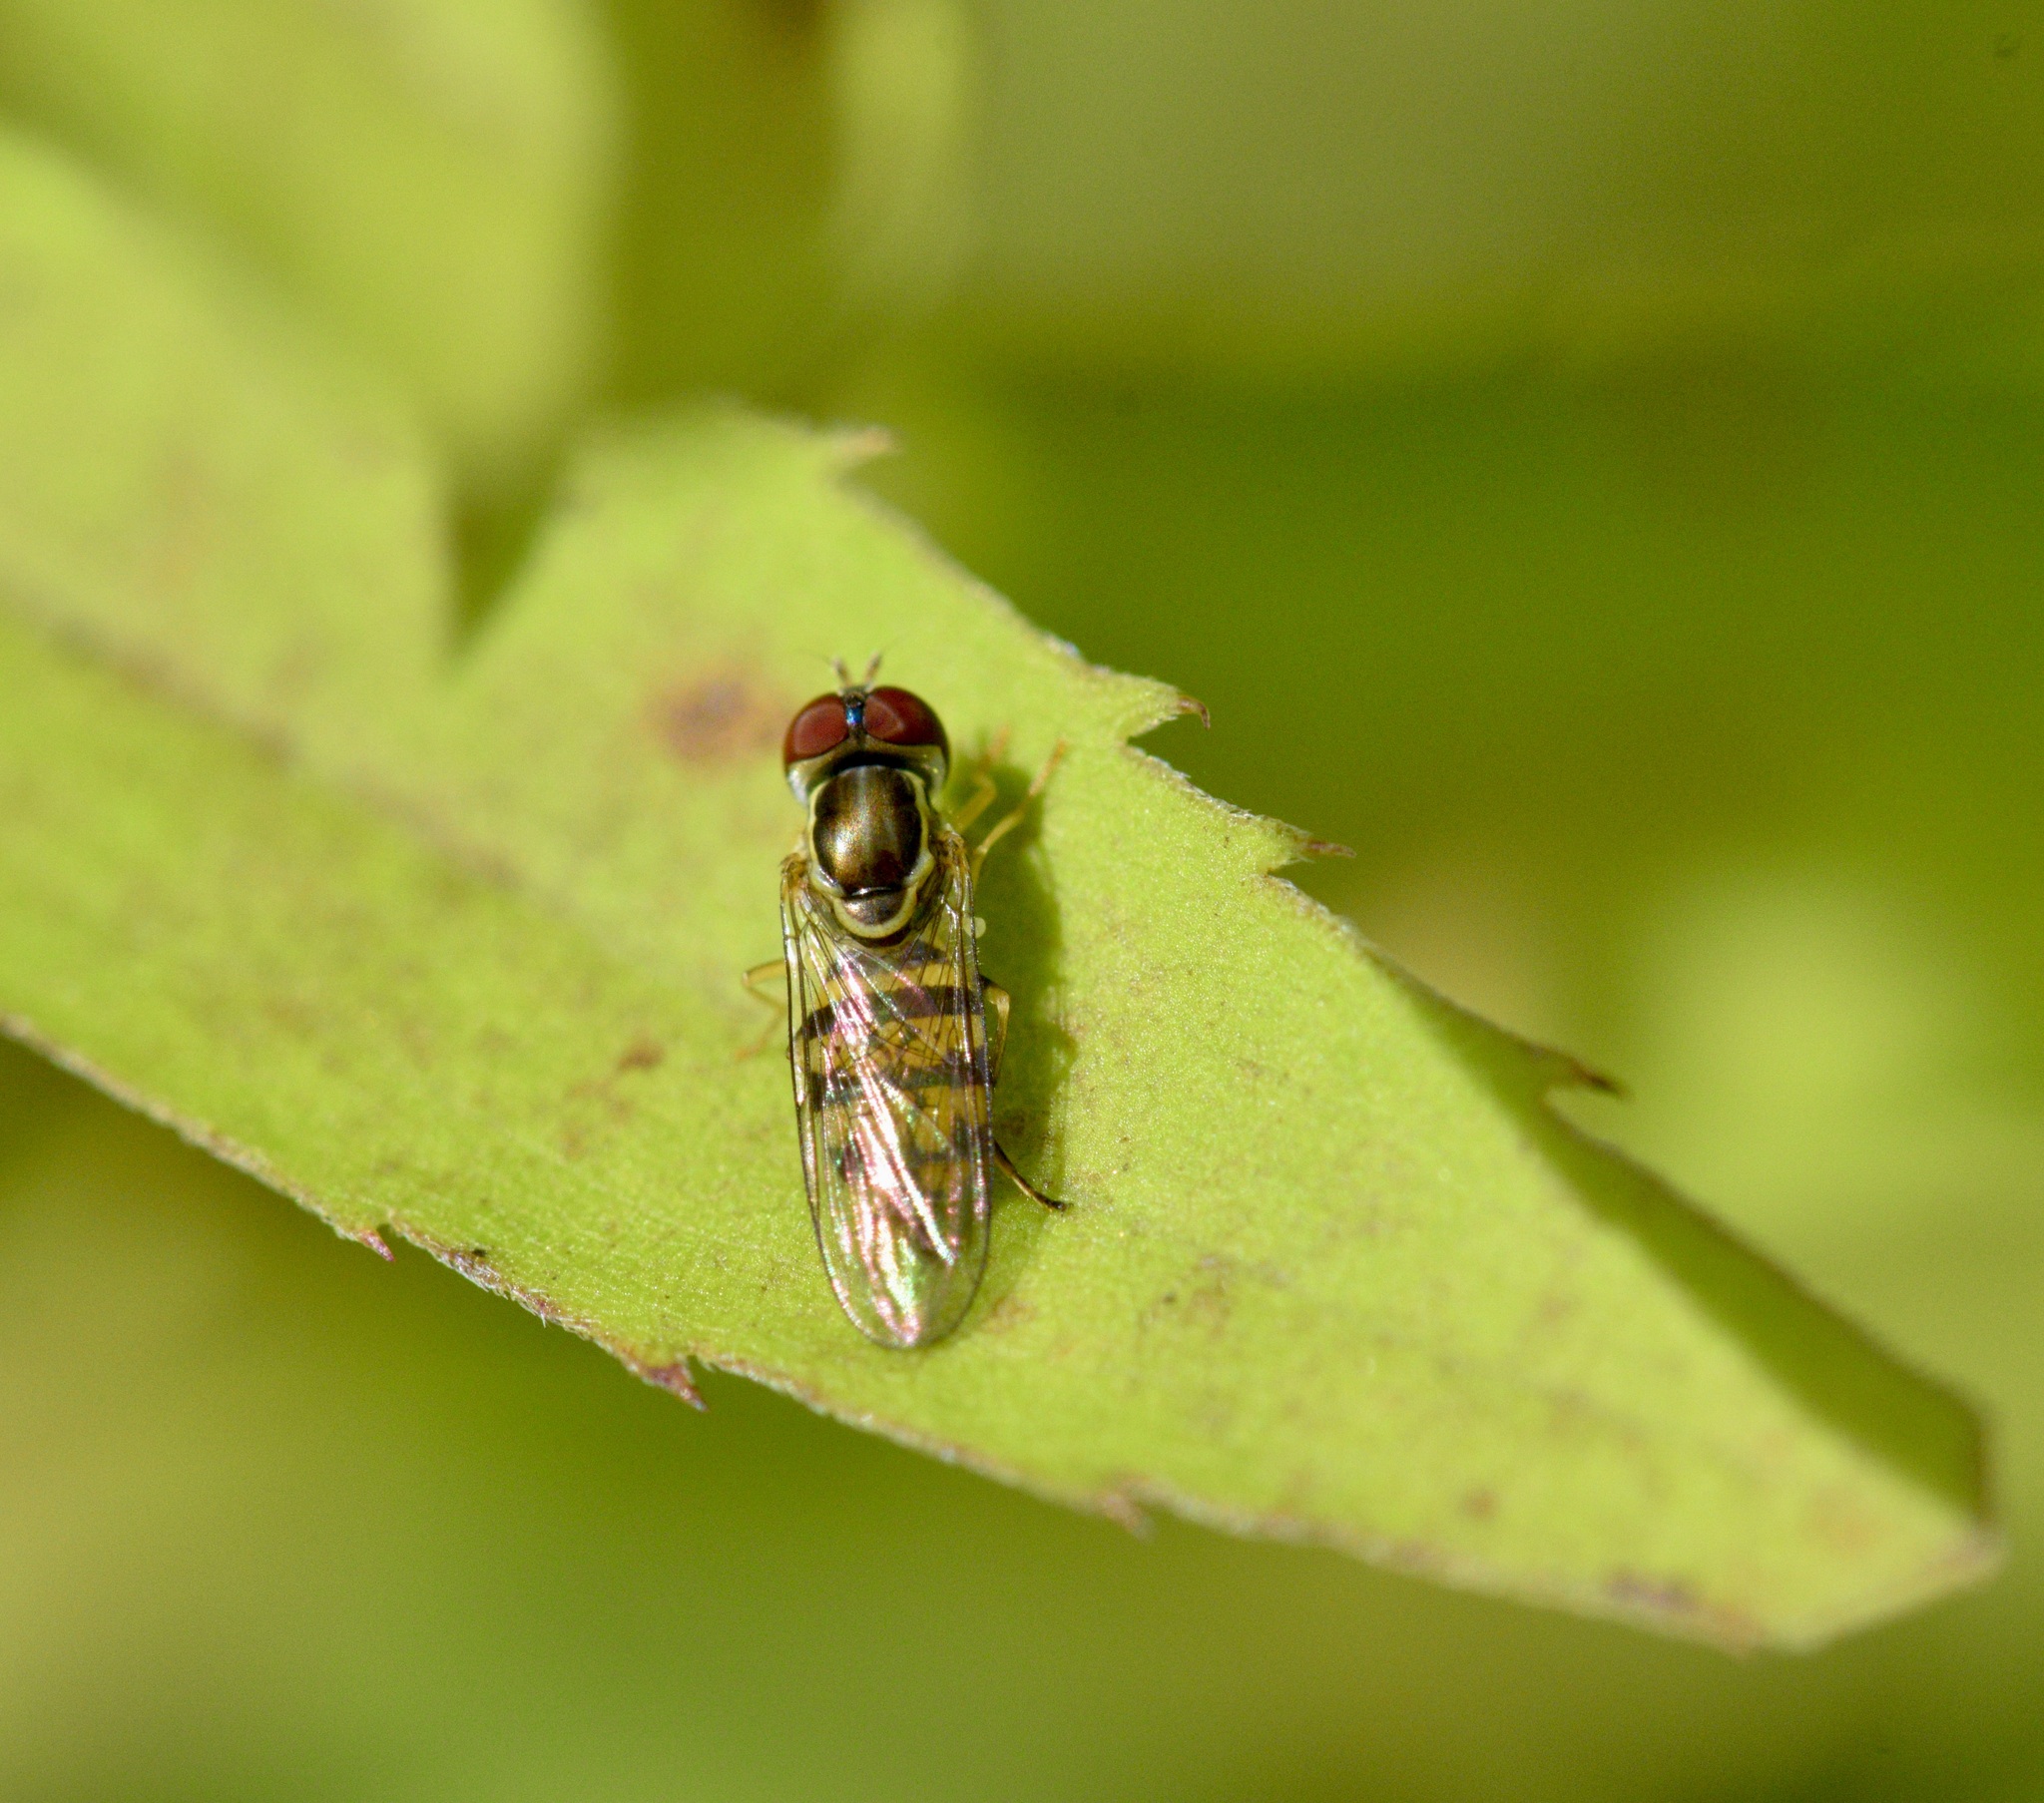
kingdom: Animalia
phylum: Arthropoda
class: Insecta
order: Diptera
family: Syrphidae
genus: Toxomerus
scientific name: Toxomerus geminatus
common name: Eastern calligrapher
